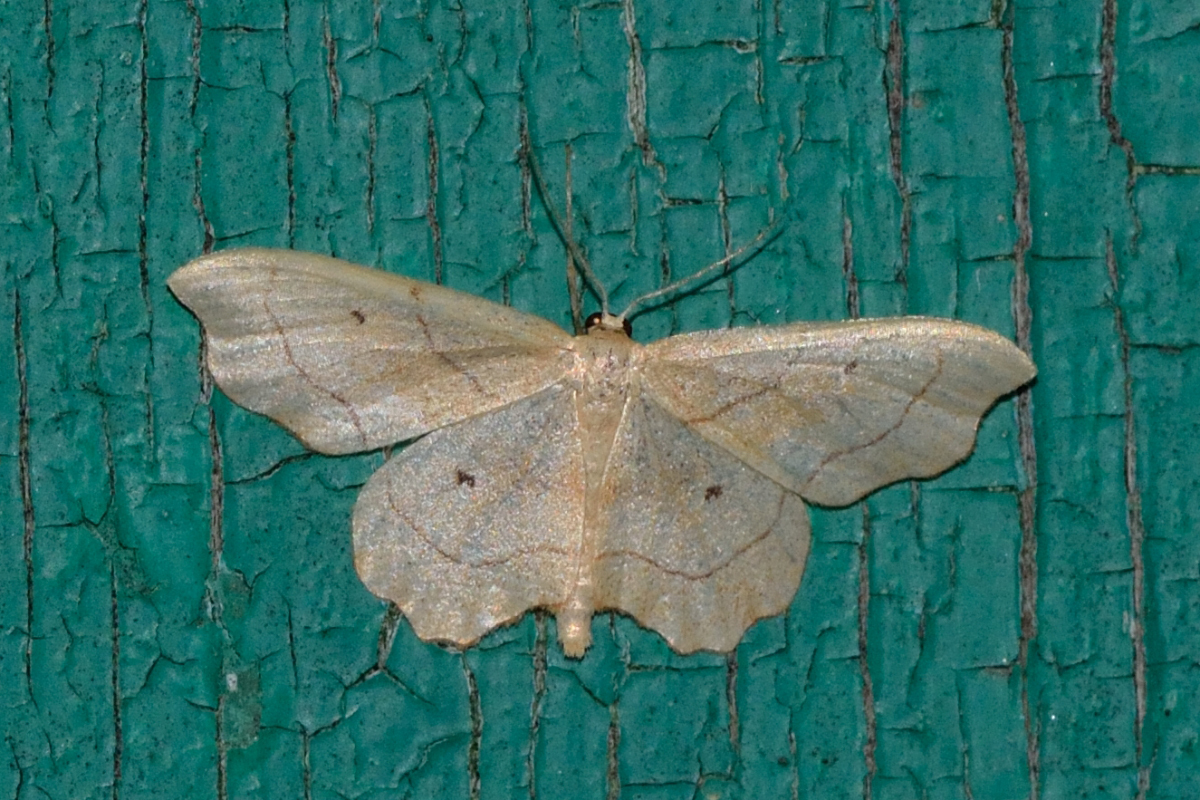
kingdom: Animalia
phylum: Arthropoda
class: Insecta
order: Lepidoptera
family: Geometridae
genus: Idaea
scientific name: Idaea emarginata
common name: Small scallop
